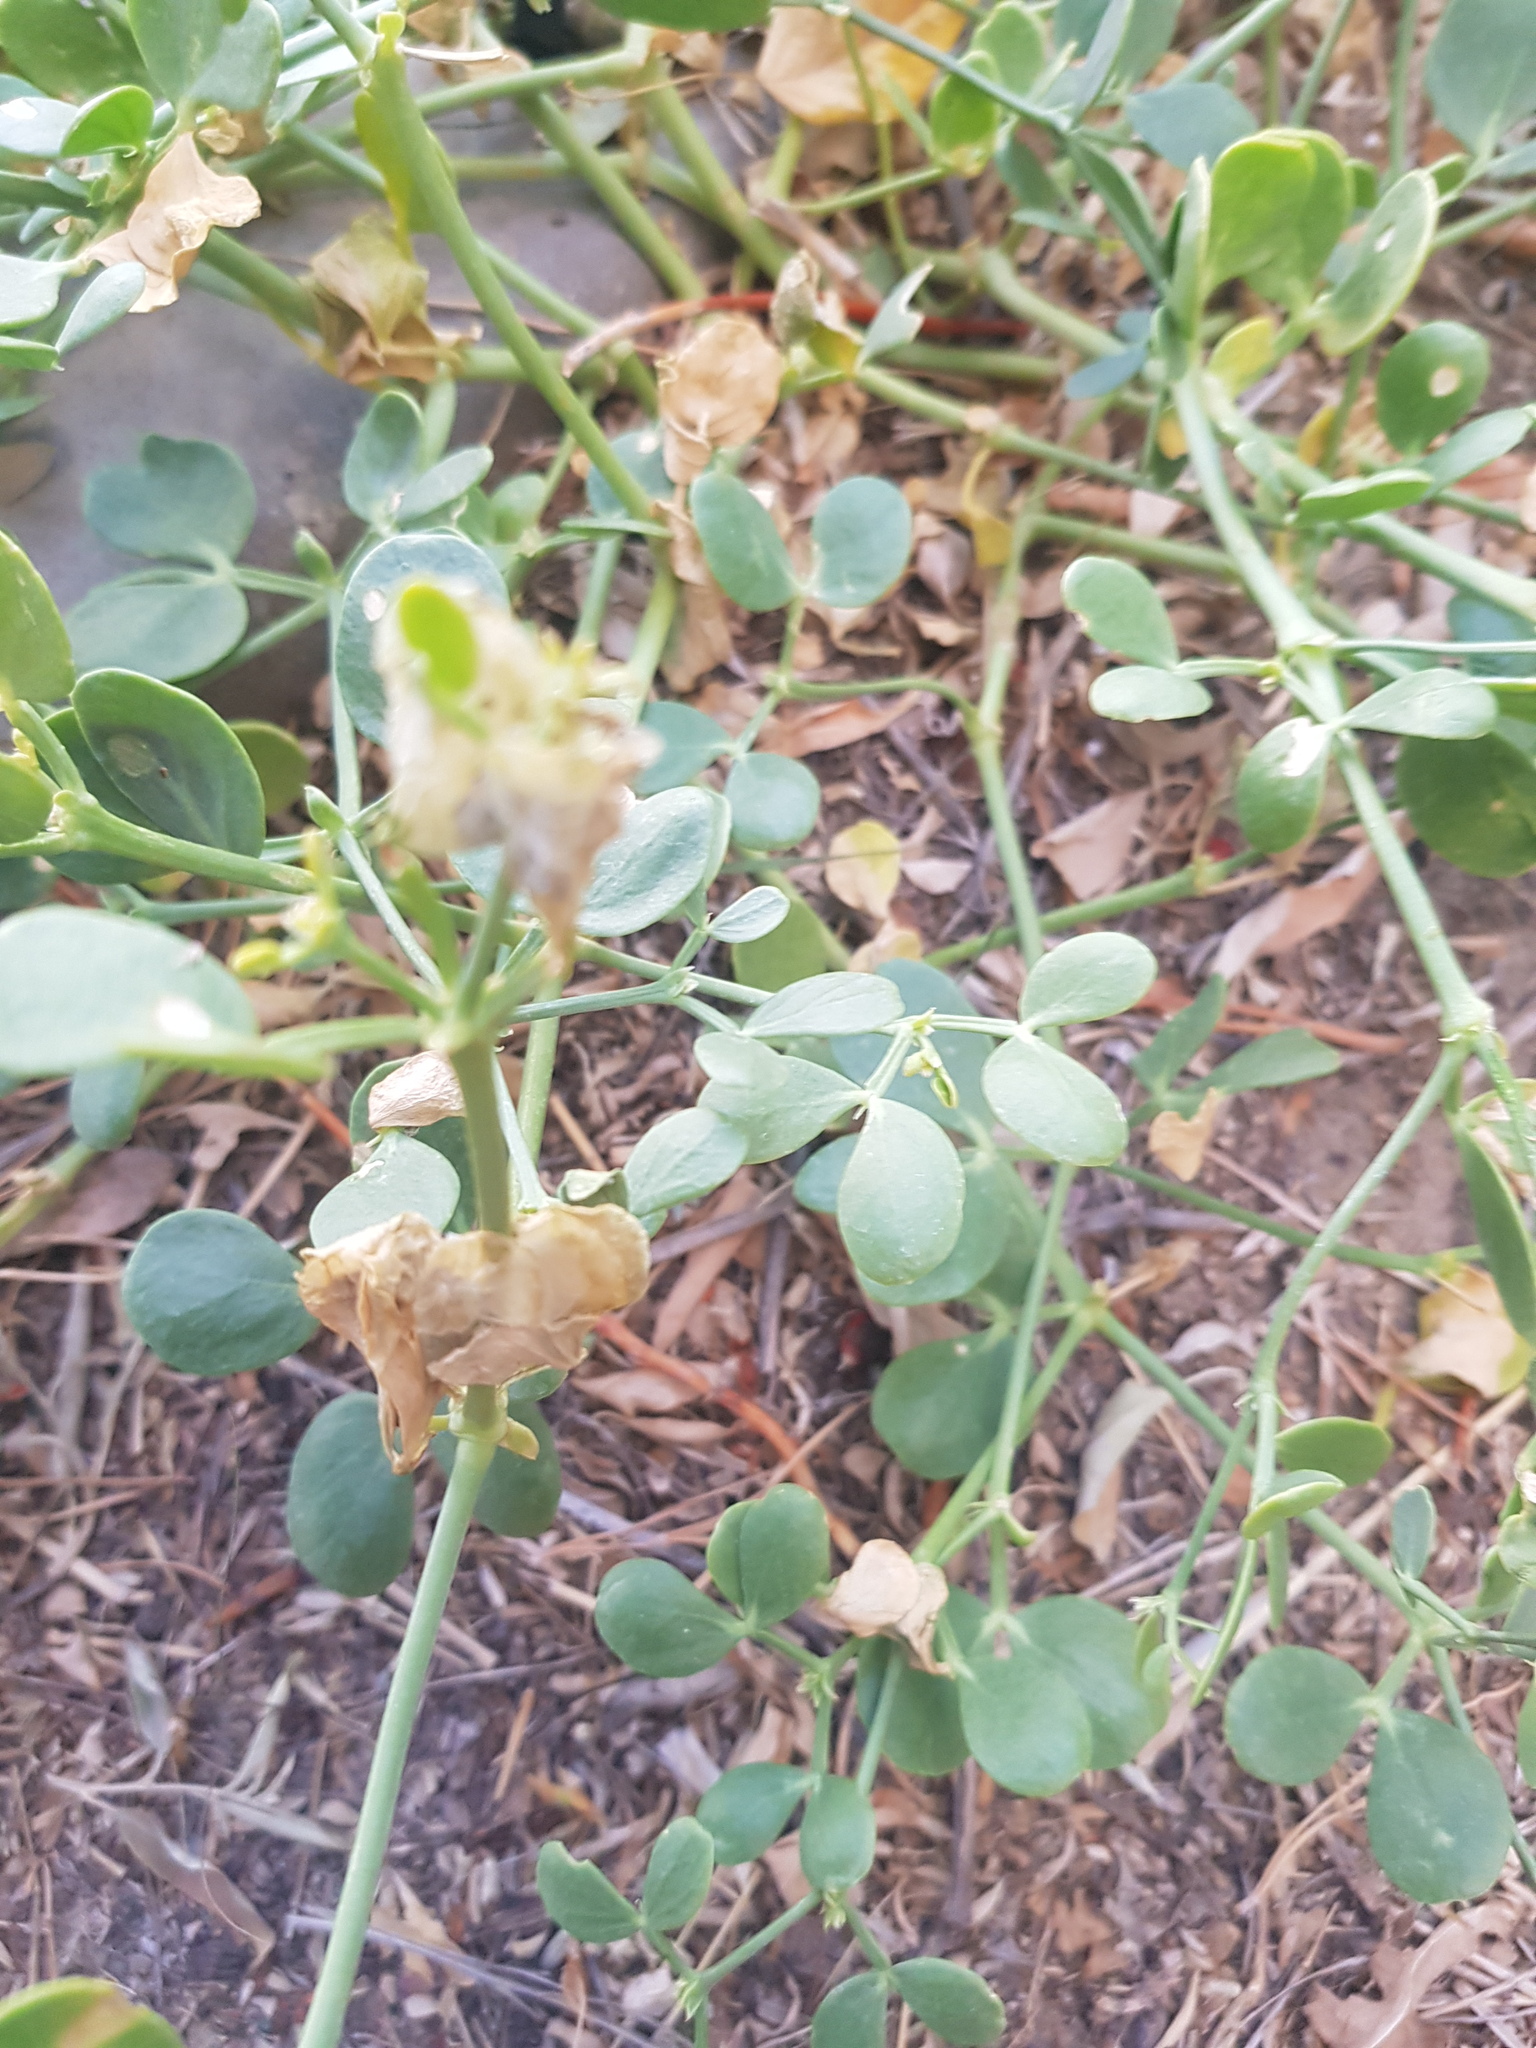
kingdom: Plantae
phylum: Tracheophyta
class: Magnoliopsida
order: Zygophyllales
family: Zygophyllaceae
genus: Zygophyllum
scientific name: Zygophyllum brachypterum
